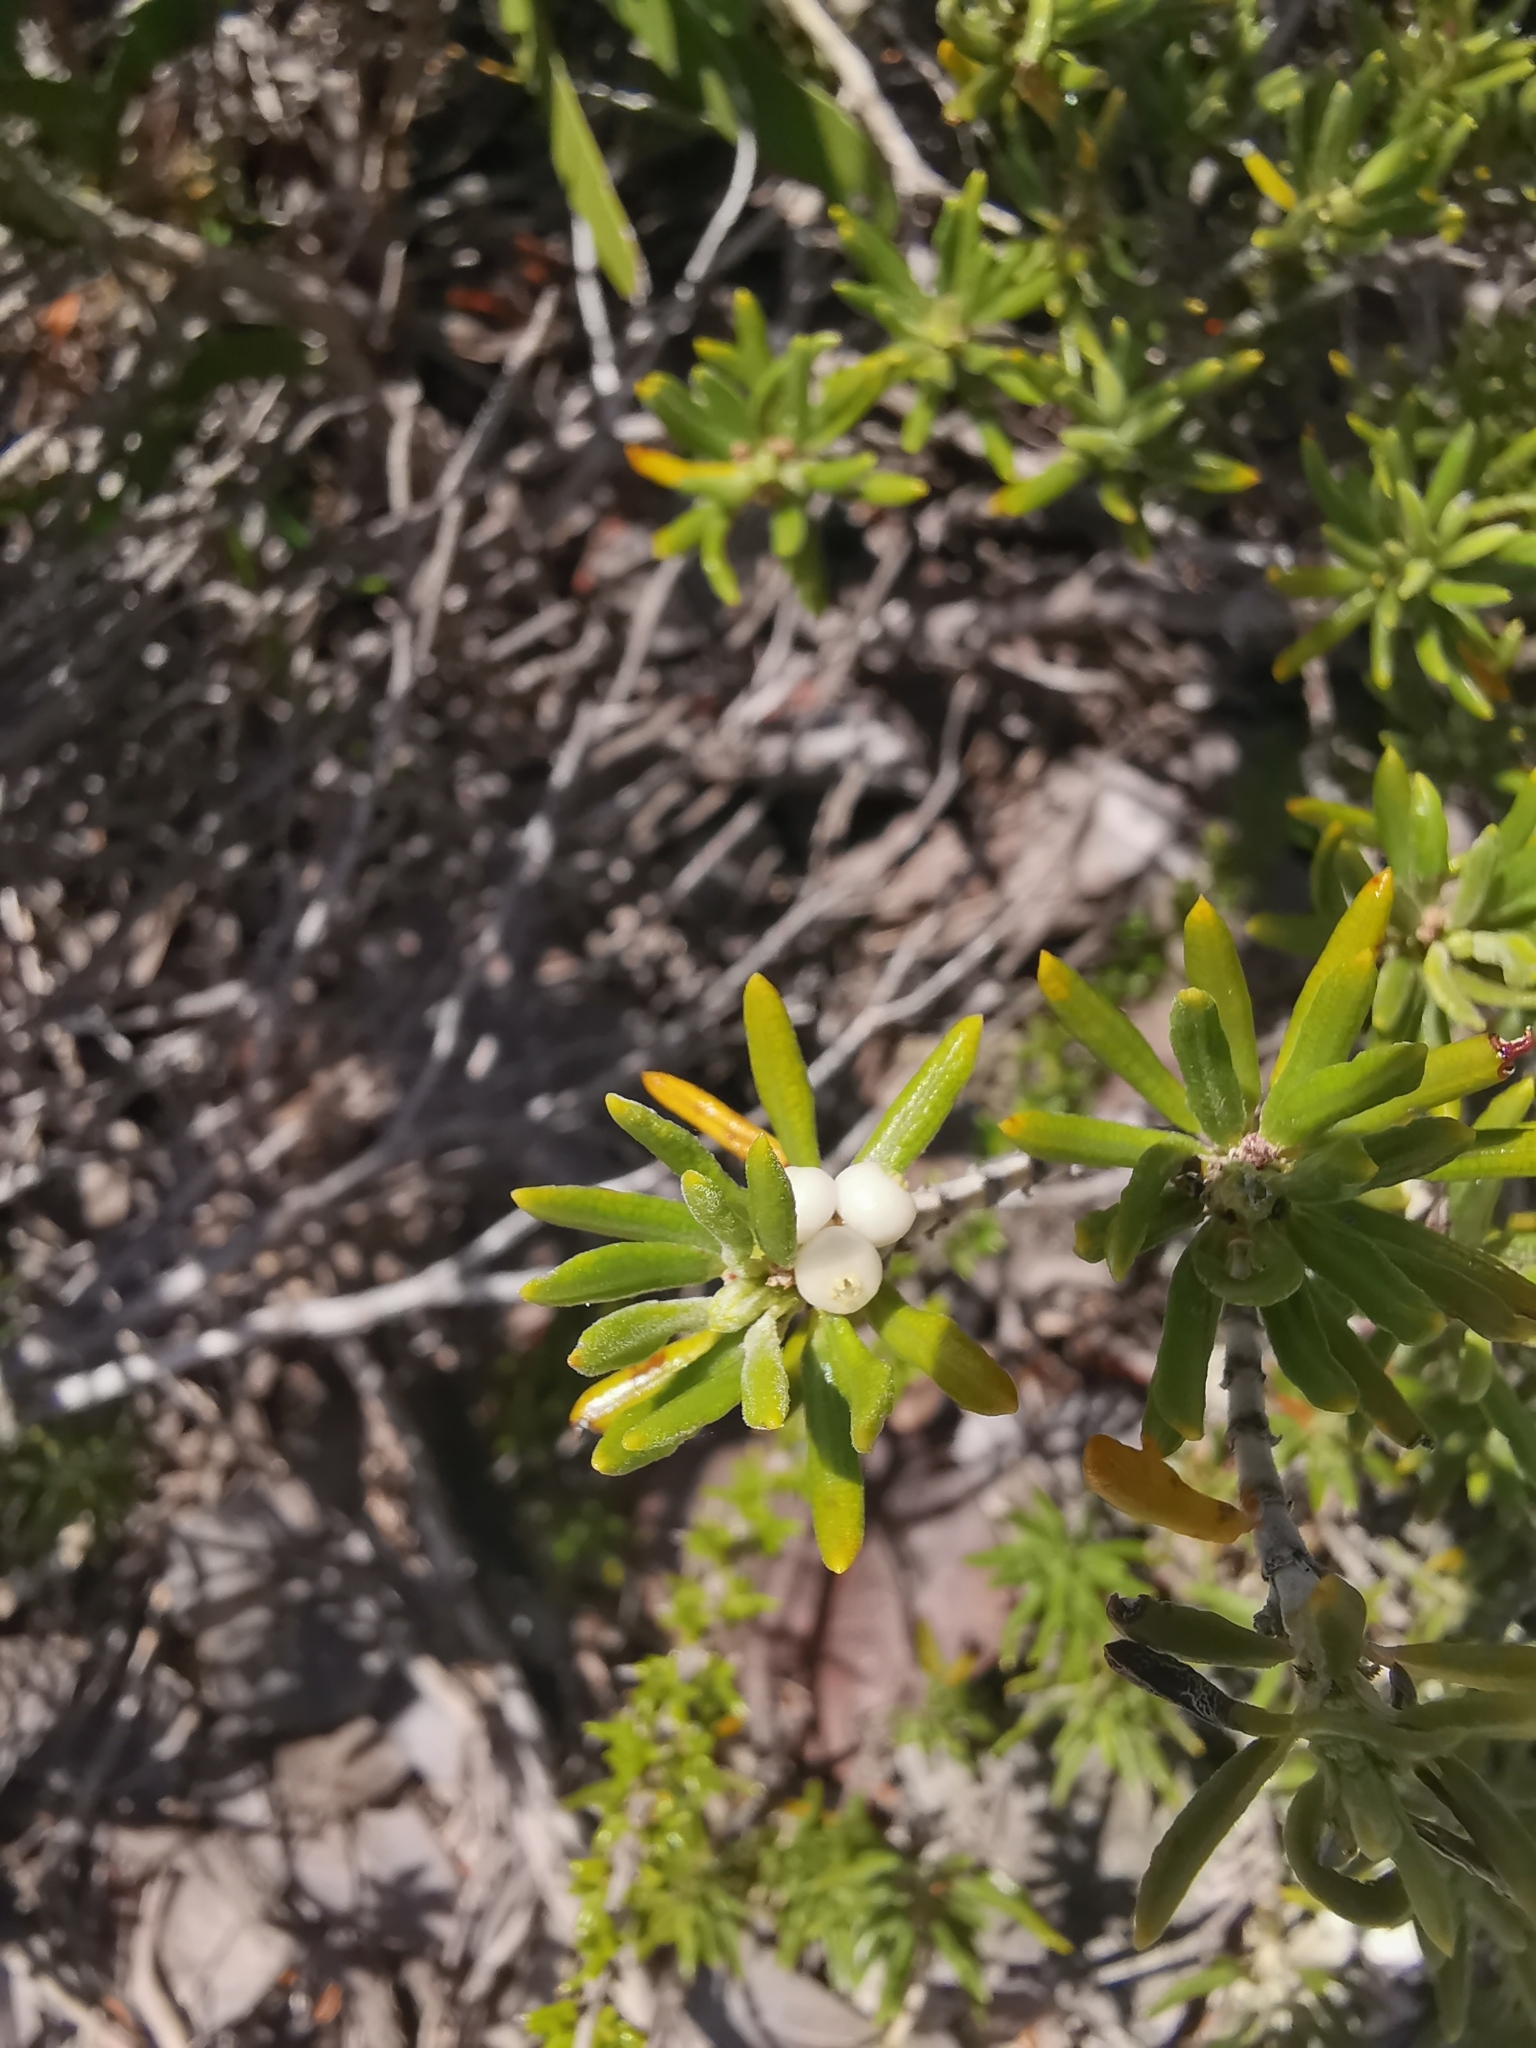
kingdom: Plantae
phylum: Tracheophyta
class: Magnoliopsida
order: Gentianales
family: Rubiaceae
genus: Strumpfia
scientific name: Strumpfia maritima
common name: Pride-of-big pine
